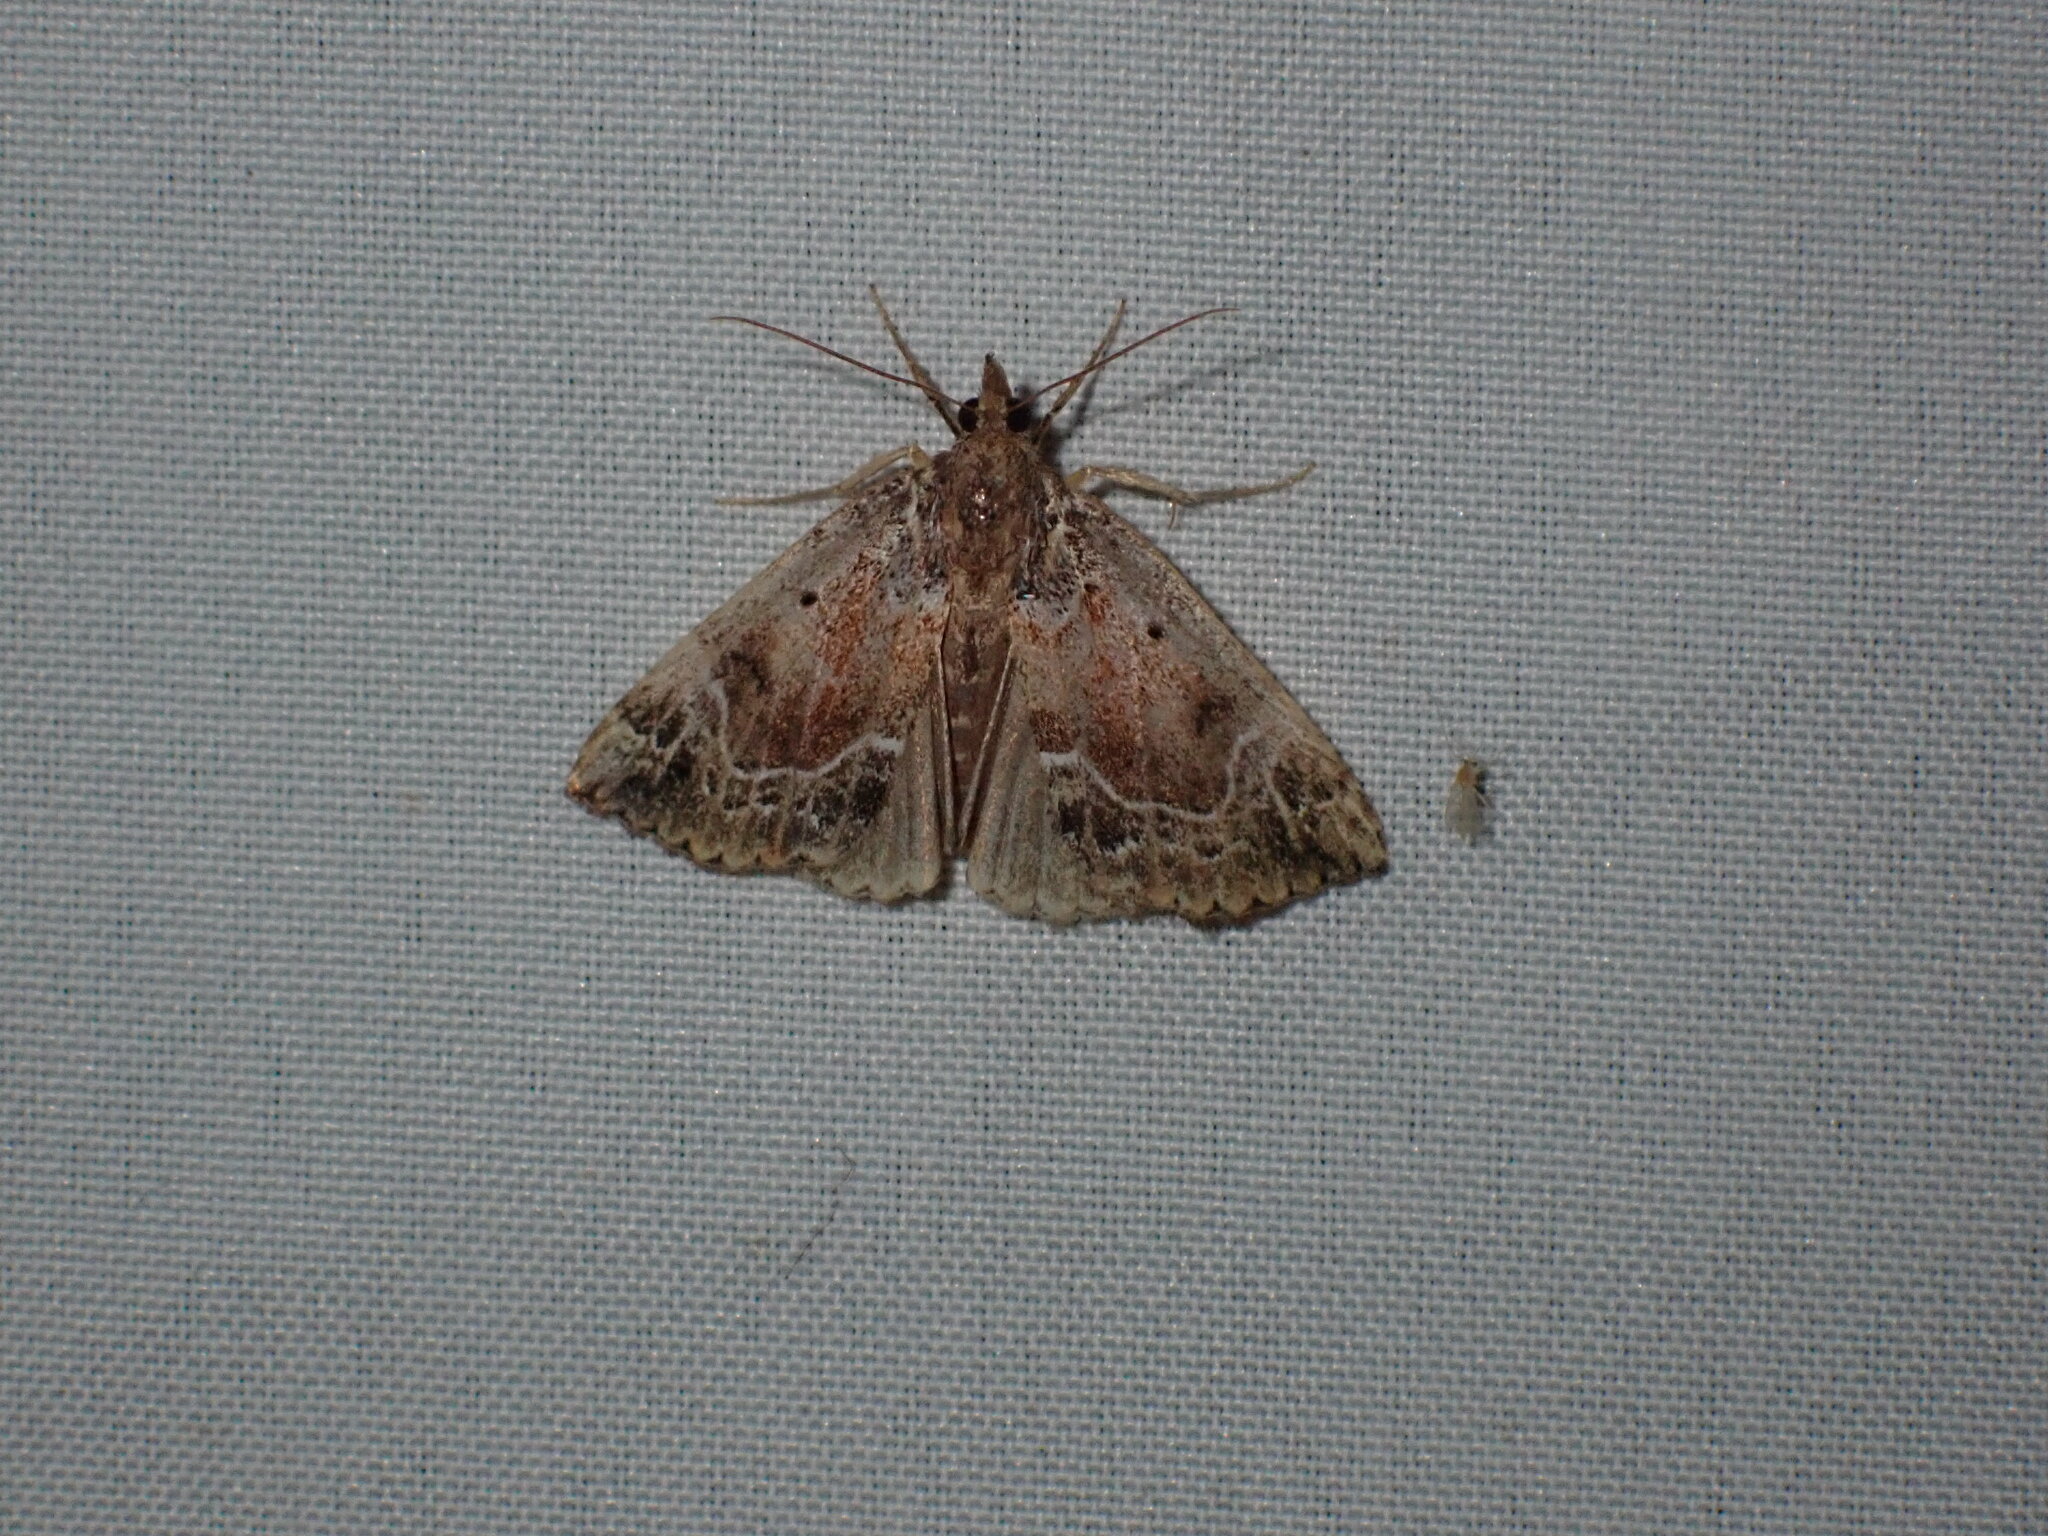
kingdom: Animalia
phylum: Arthropoda
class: Insecta
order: Lepidoptera
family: Erebidae
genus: Hypena
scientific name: Hypena abalienalis
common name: White-lined snout
